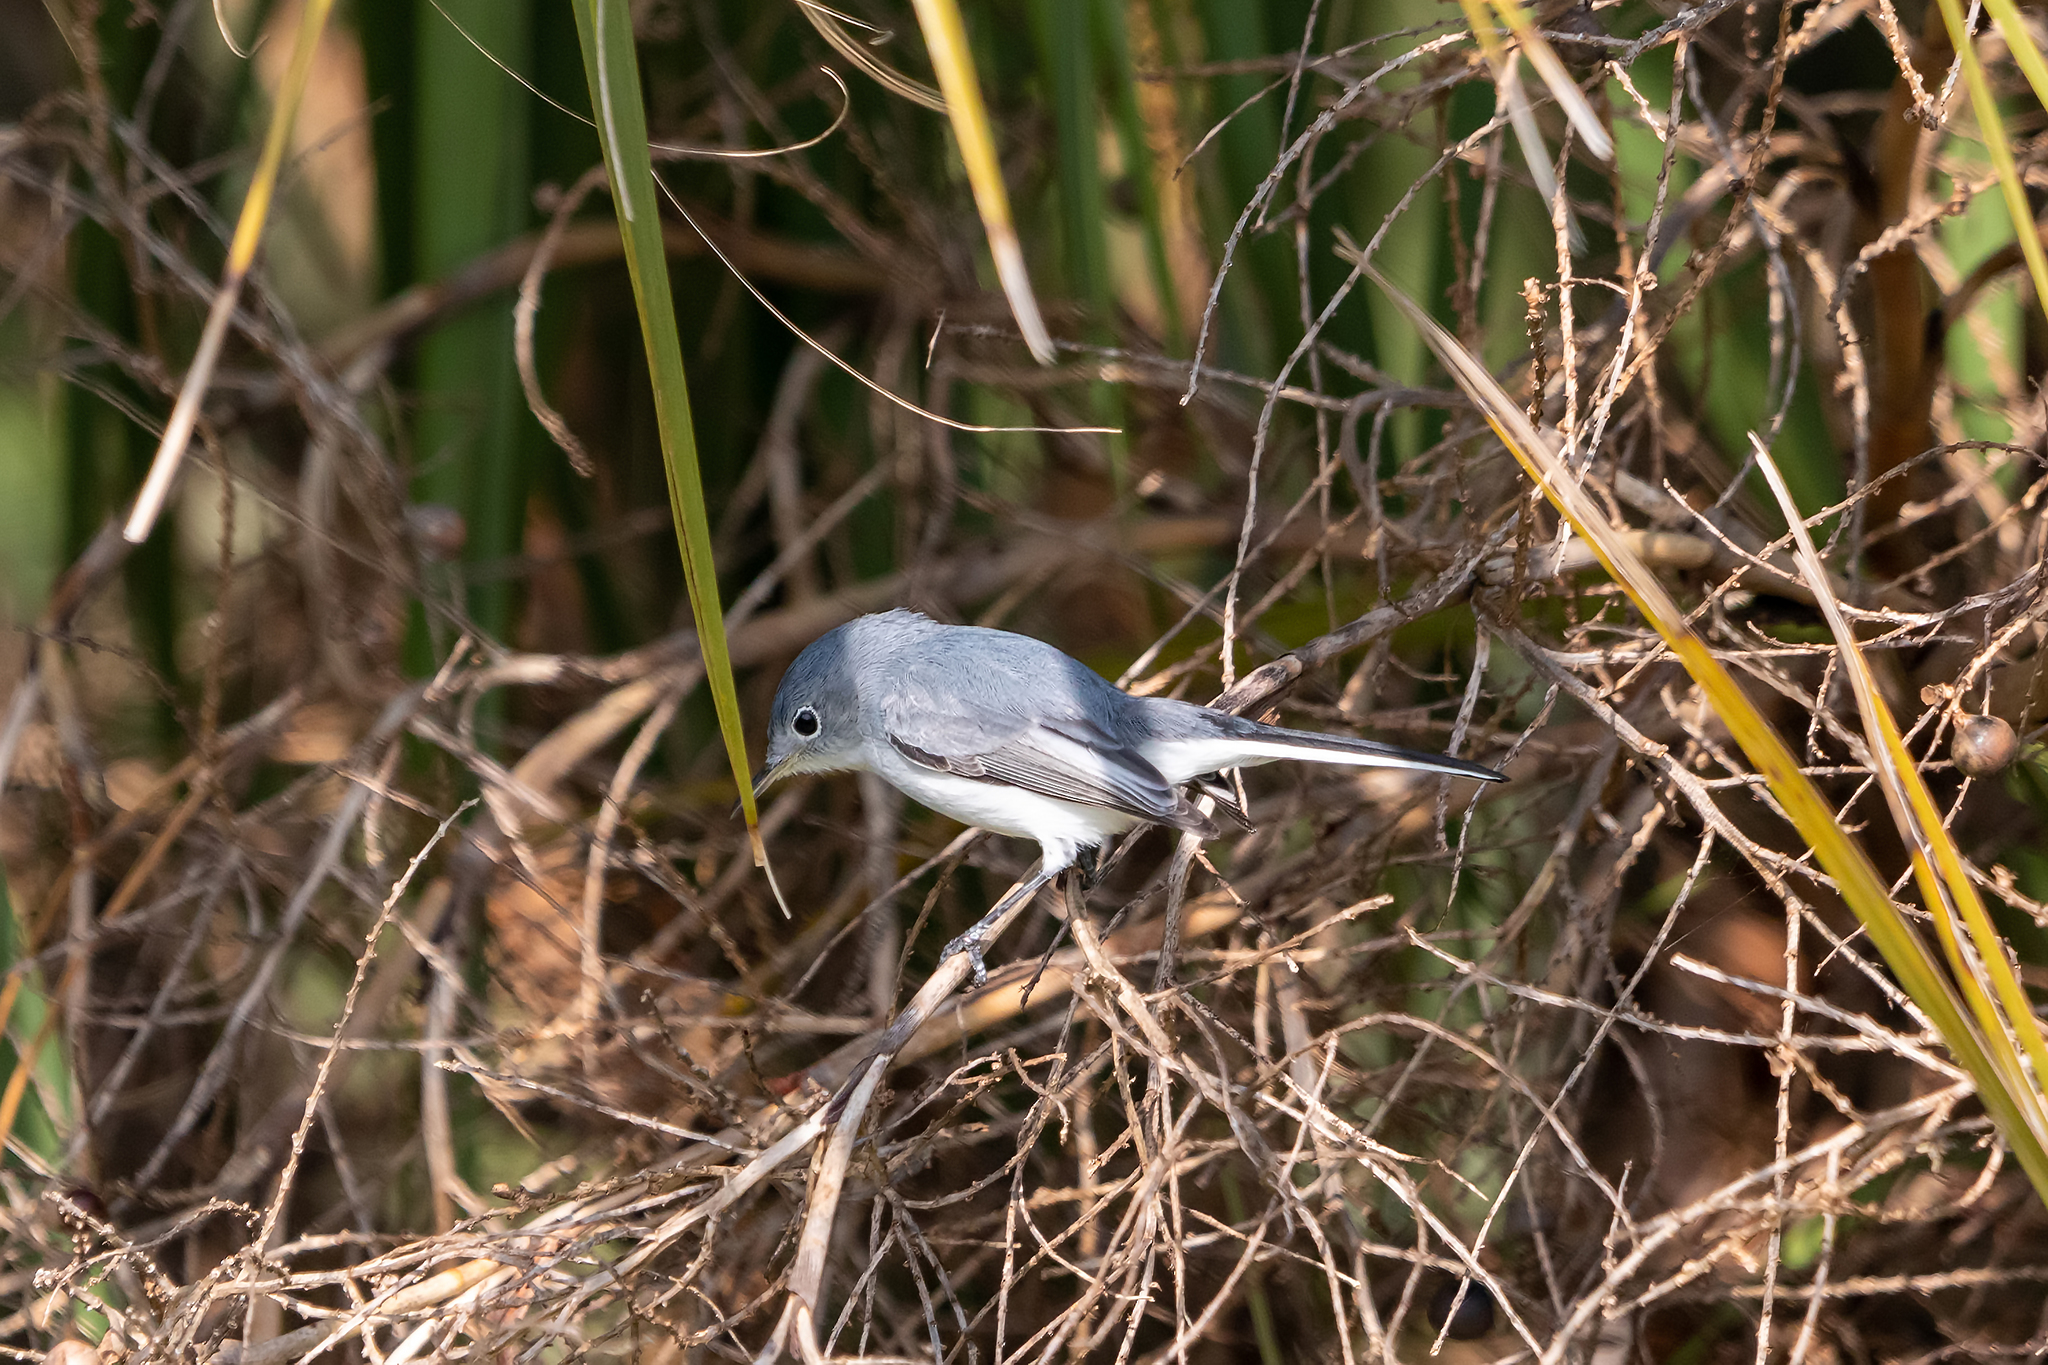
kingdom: Animalia
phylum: Chordata
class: Aves
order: Passeriformes
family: Polioptilidae
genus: Polioptila
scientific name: Polioptila caerulea
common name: Blue-gray gnatcatcher
